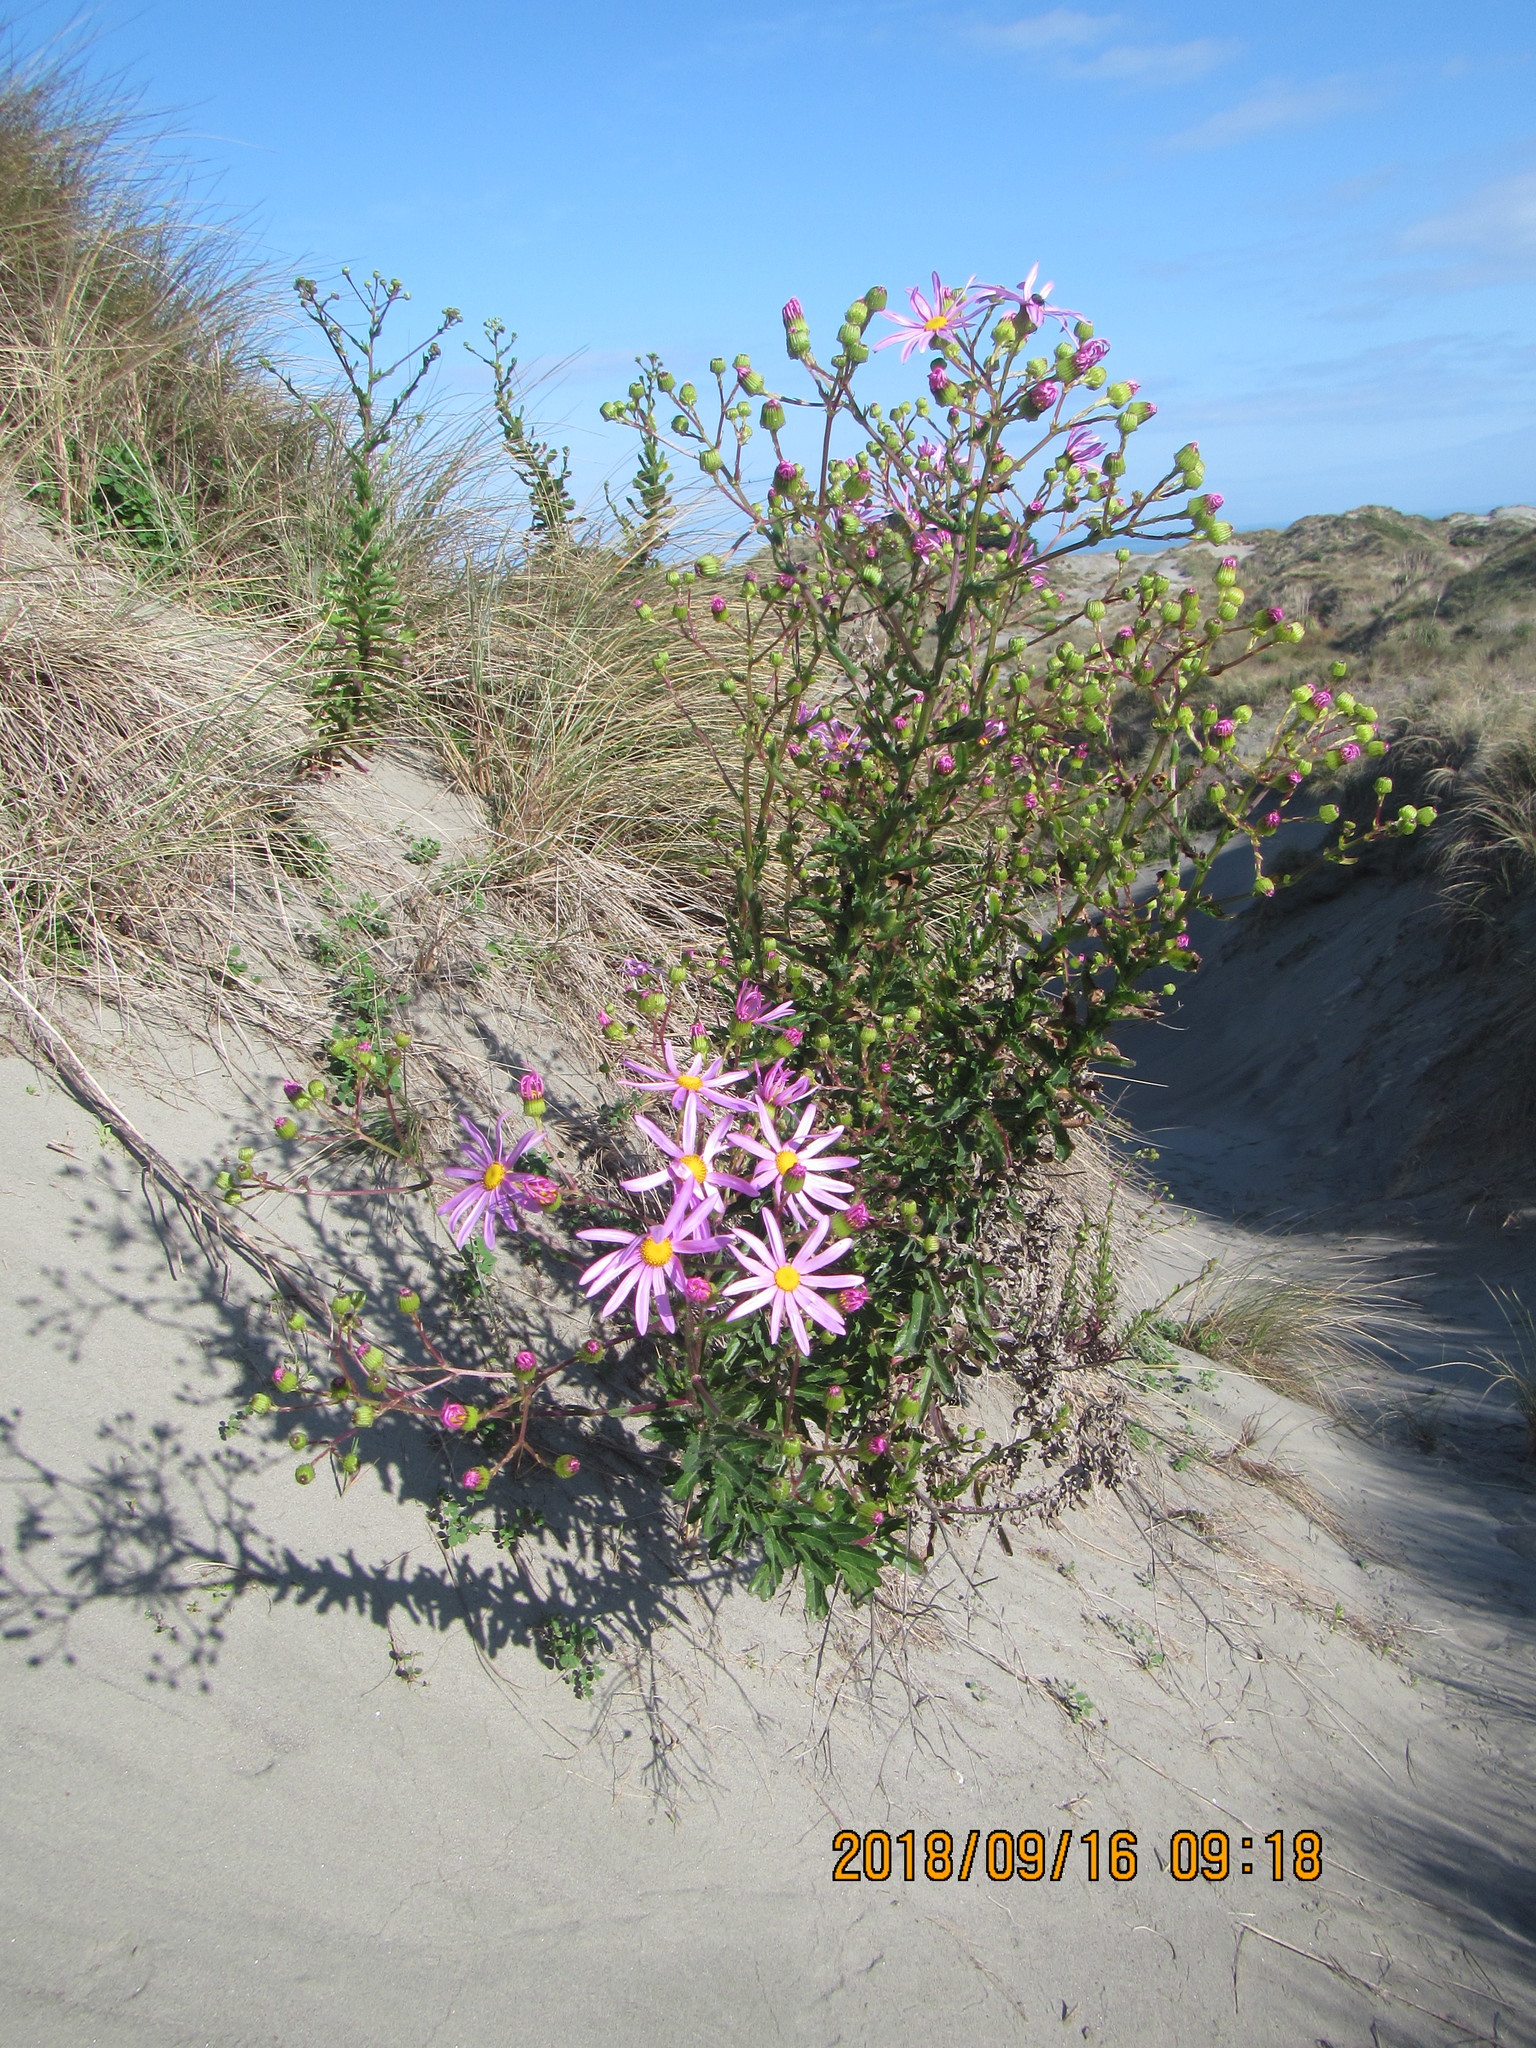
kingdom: Plantae
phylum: Tracheophyta
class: Magnoliopsida
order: Asterales
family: Asteraceae
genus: Senecio
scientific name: Senecio glastifolius
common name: Woad-leaved ragwort
